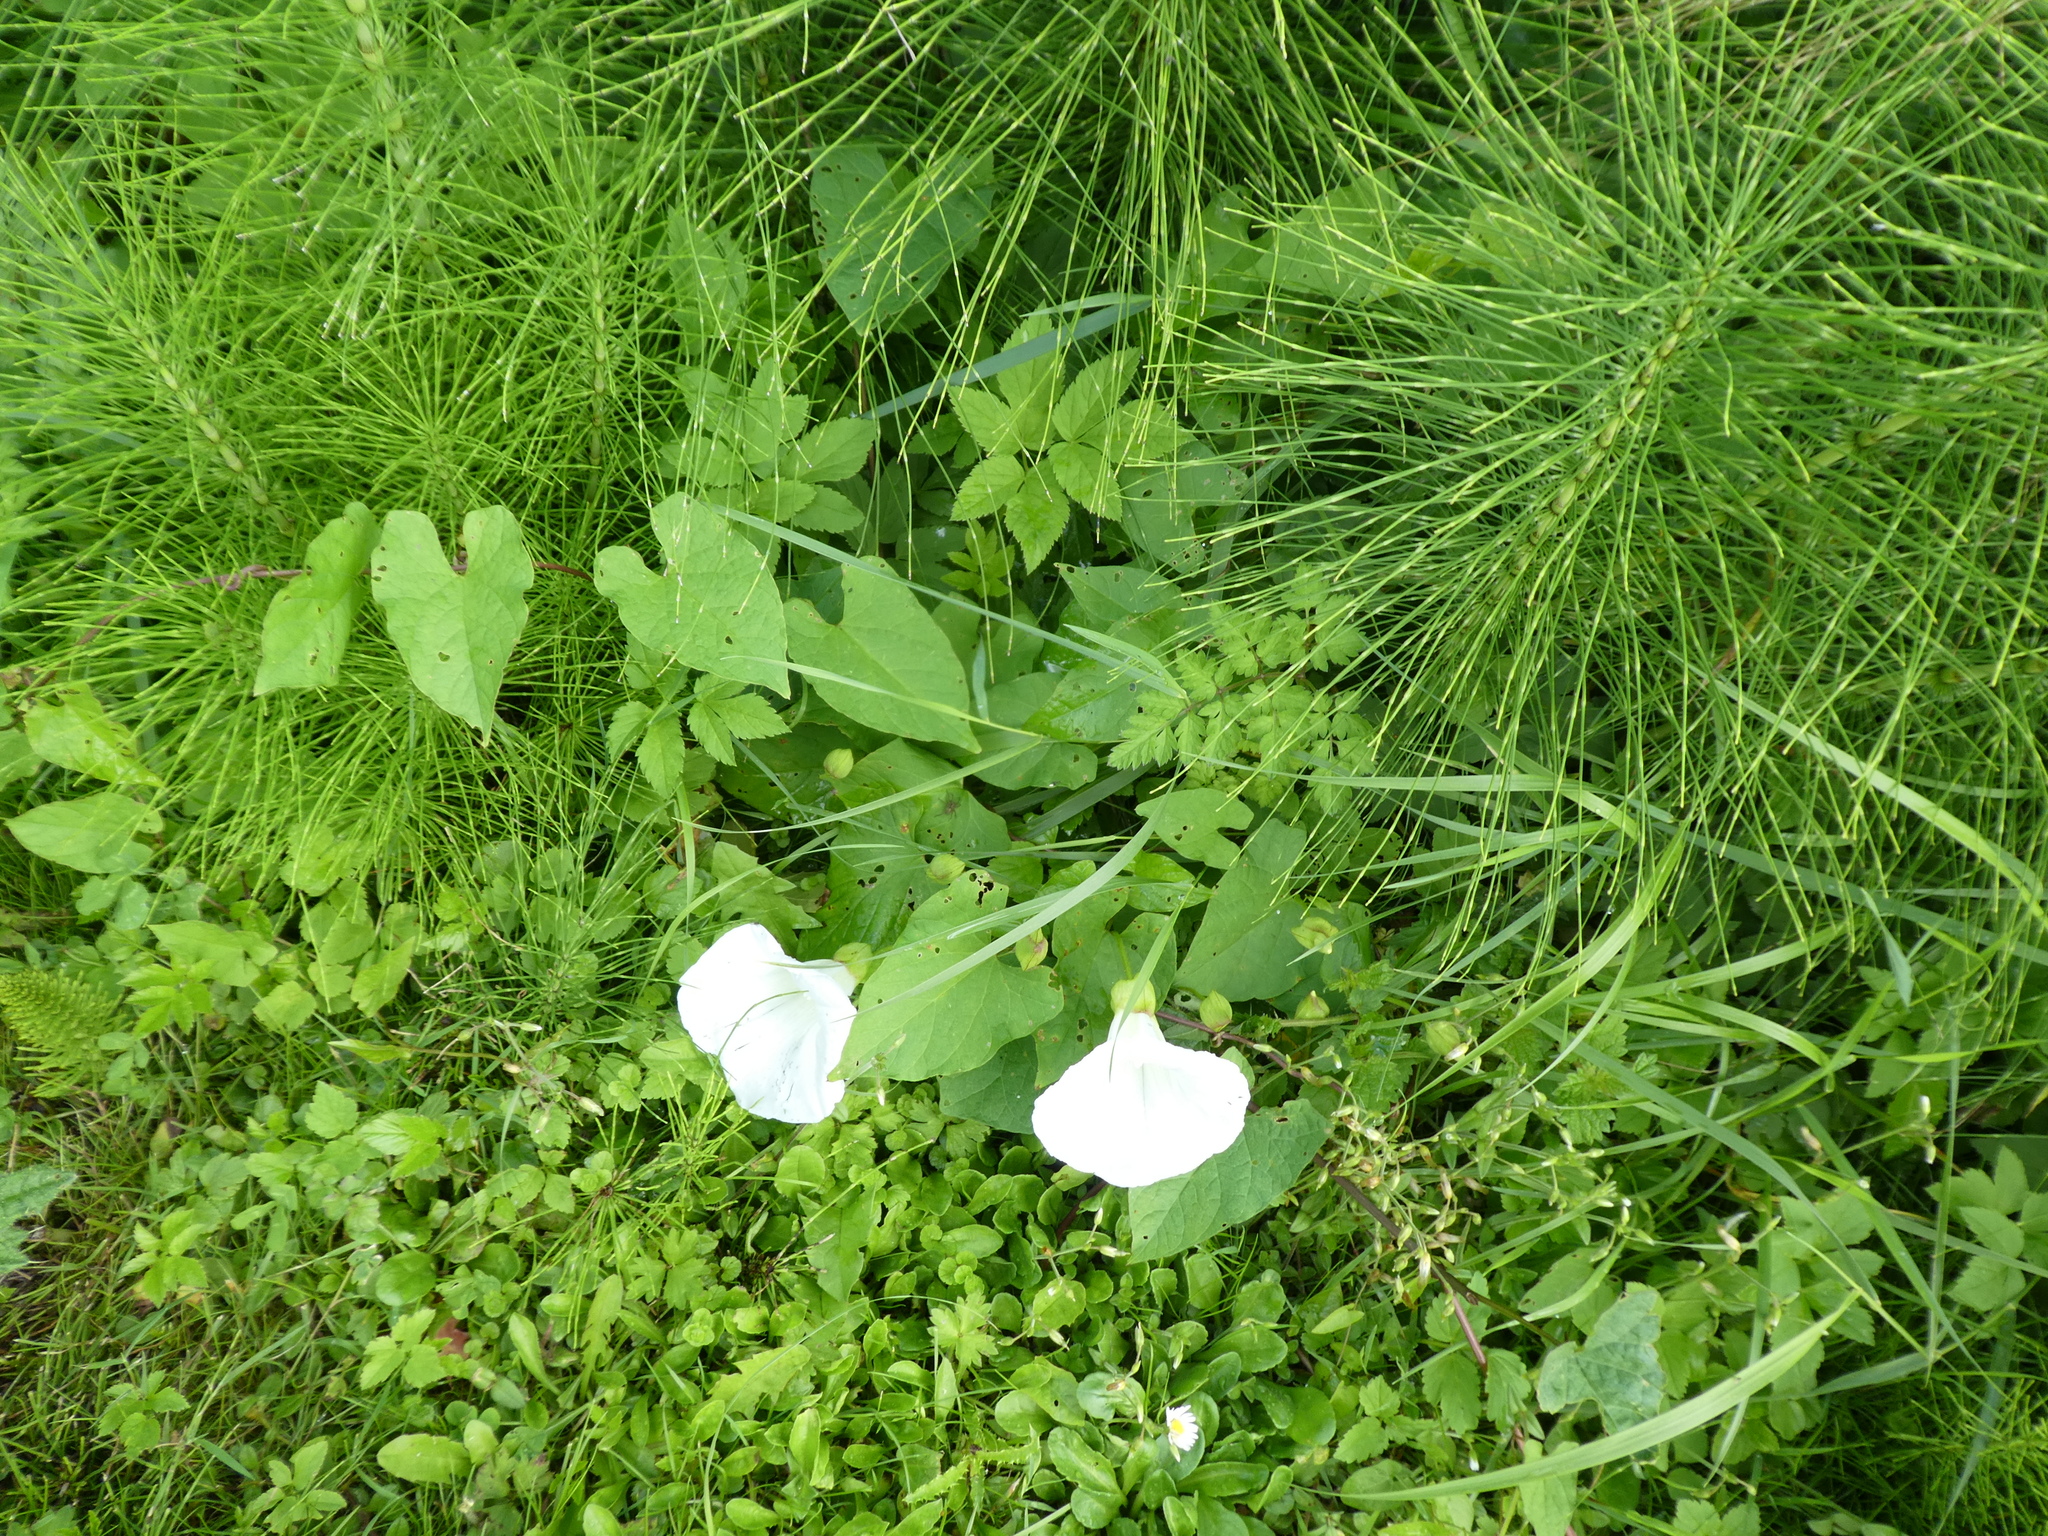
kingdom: Plantae
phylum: Tracheophyta
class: Magnoliopsida
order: Solanales
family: Convolvulaceae
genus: Calystegia
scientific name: Calystegia silvatica
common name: Large bindweed
